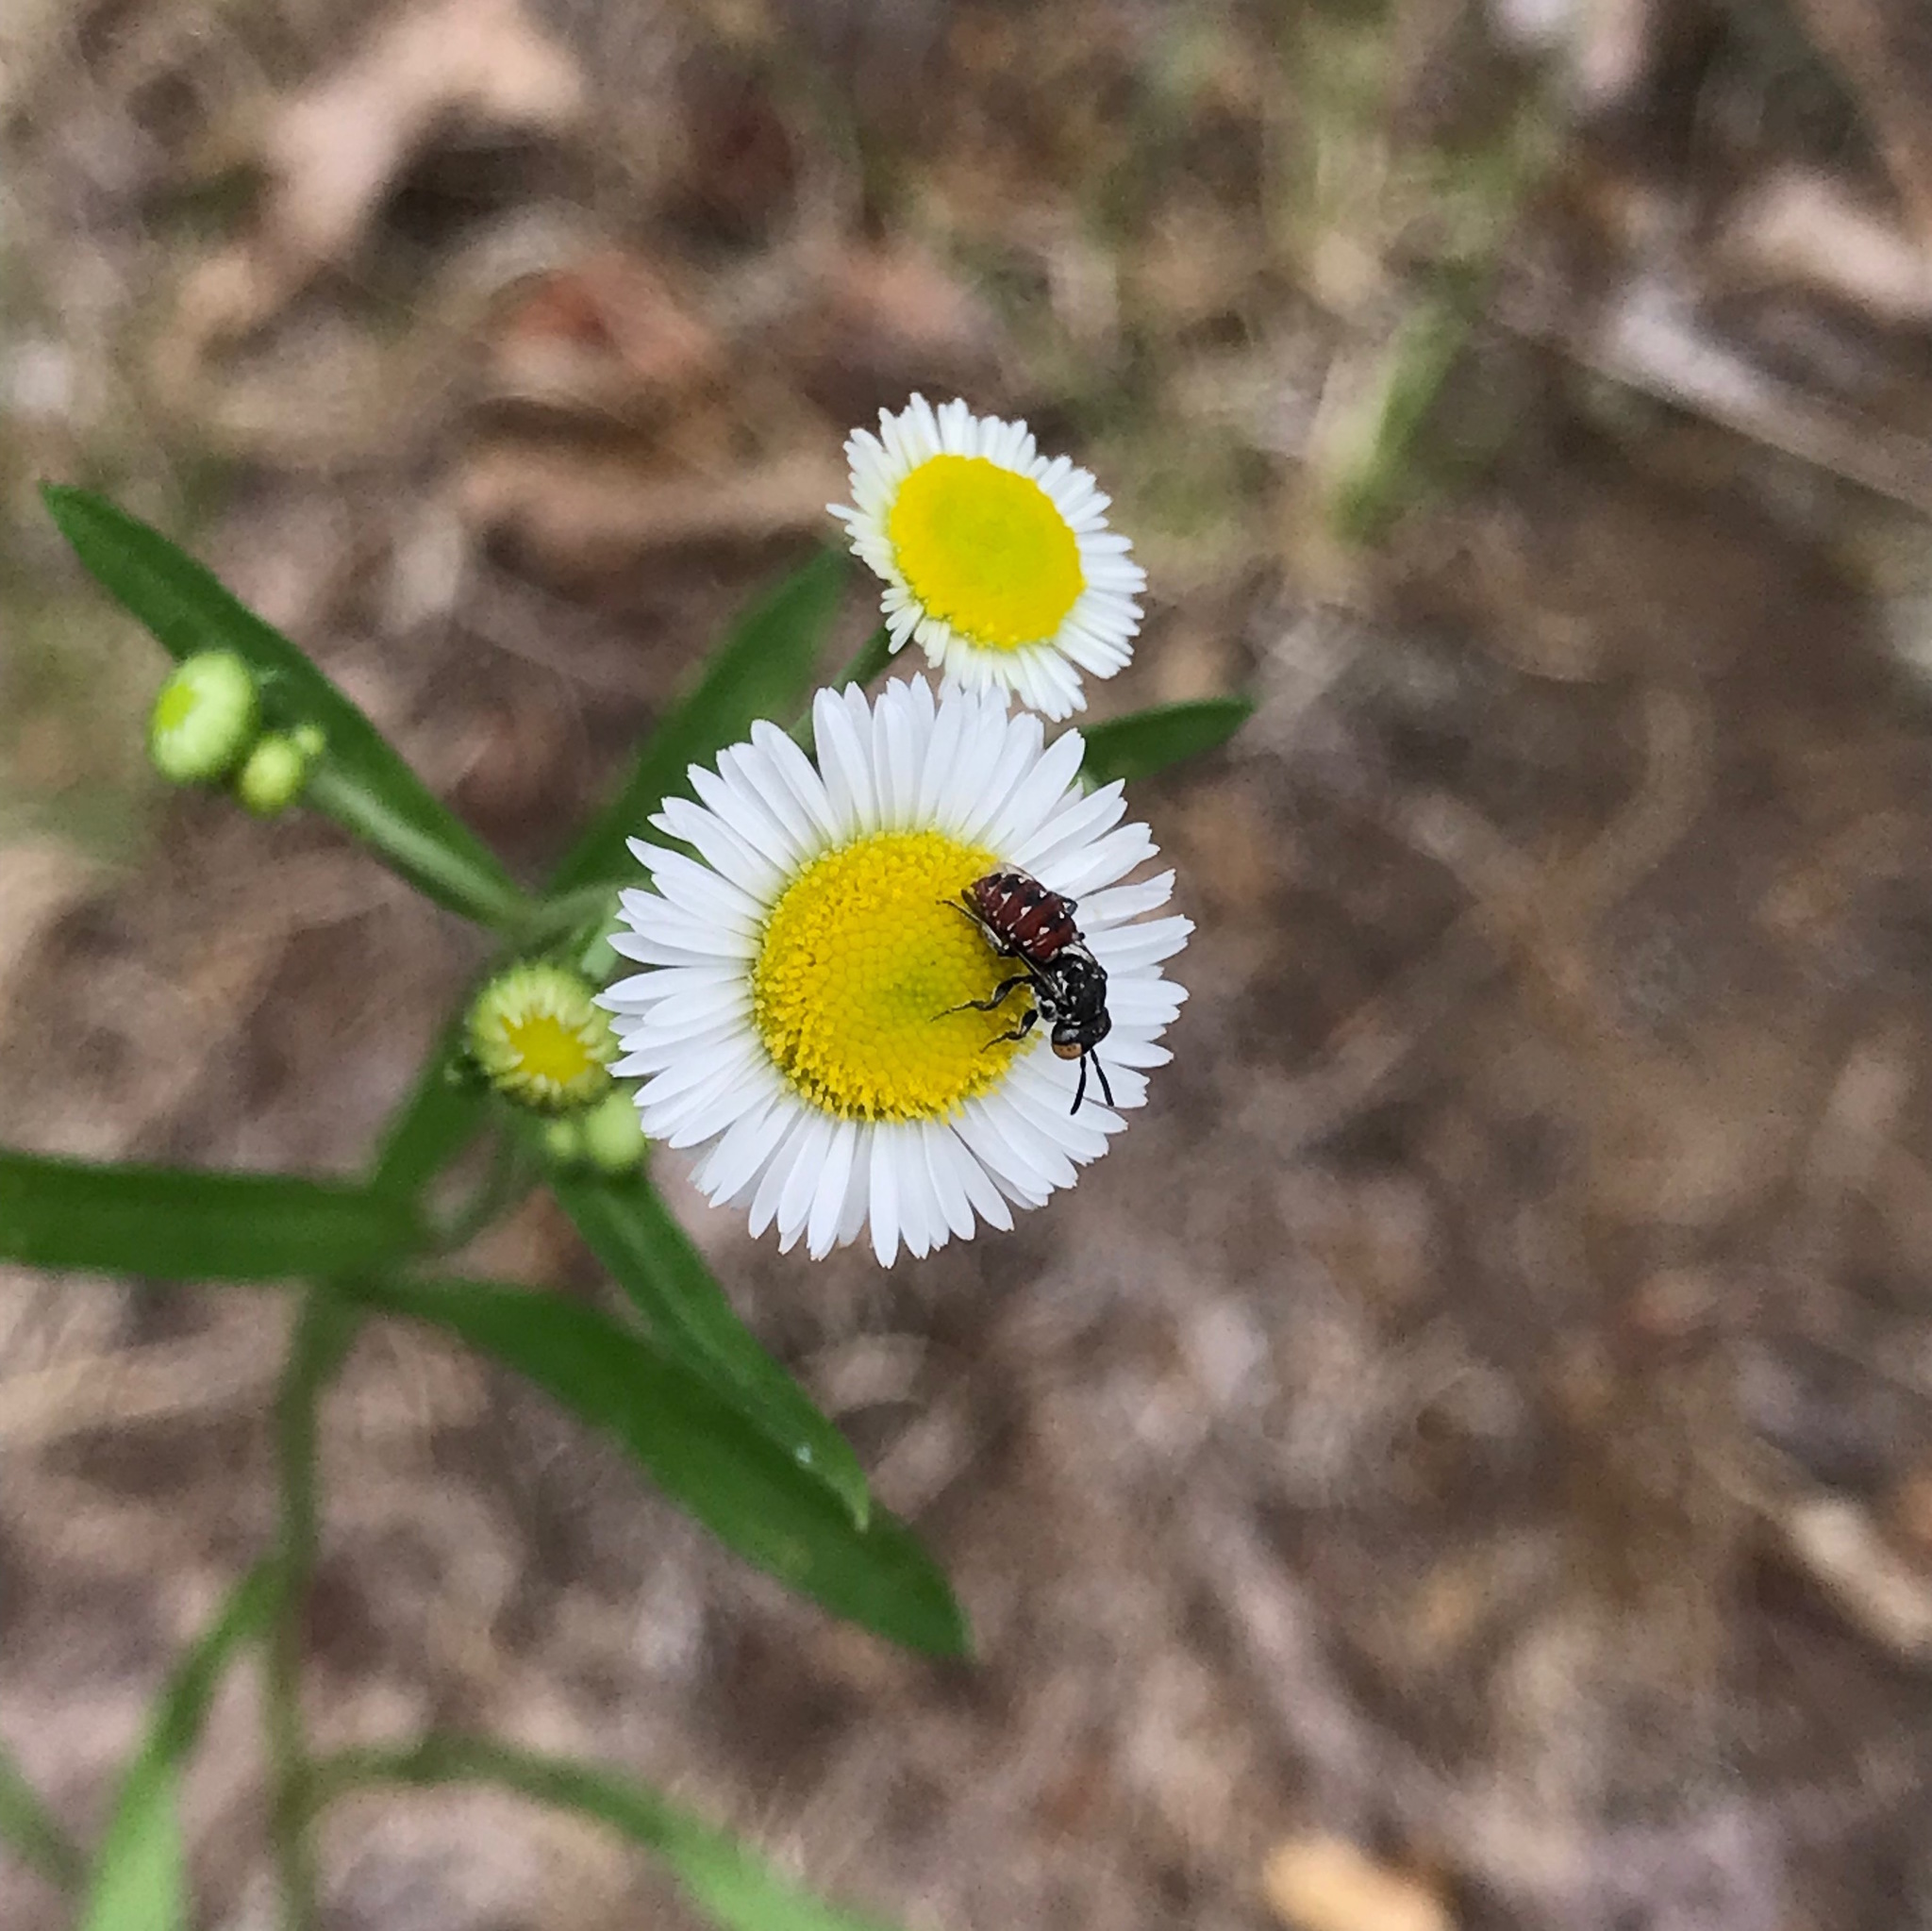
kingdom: Animalia
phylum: Arthropoda
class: Insecta
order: Hymenoptera
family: Apidae
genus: Holcopasites
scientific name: Holcopasites calliopsidis
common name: Calliopsis cuckoo nomad bee
